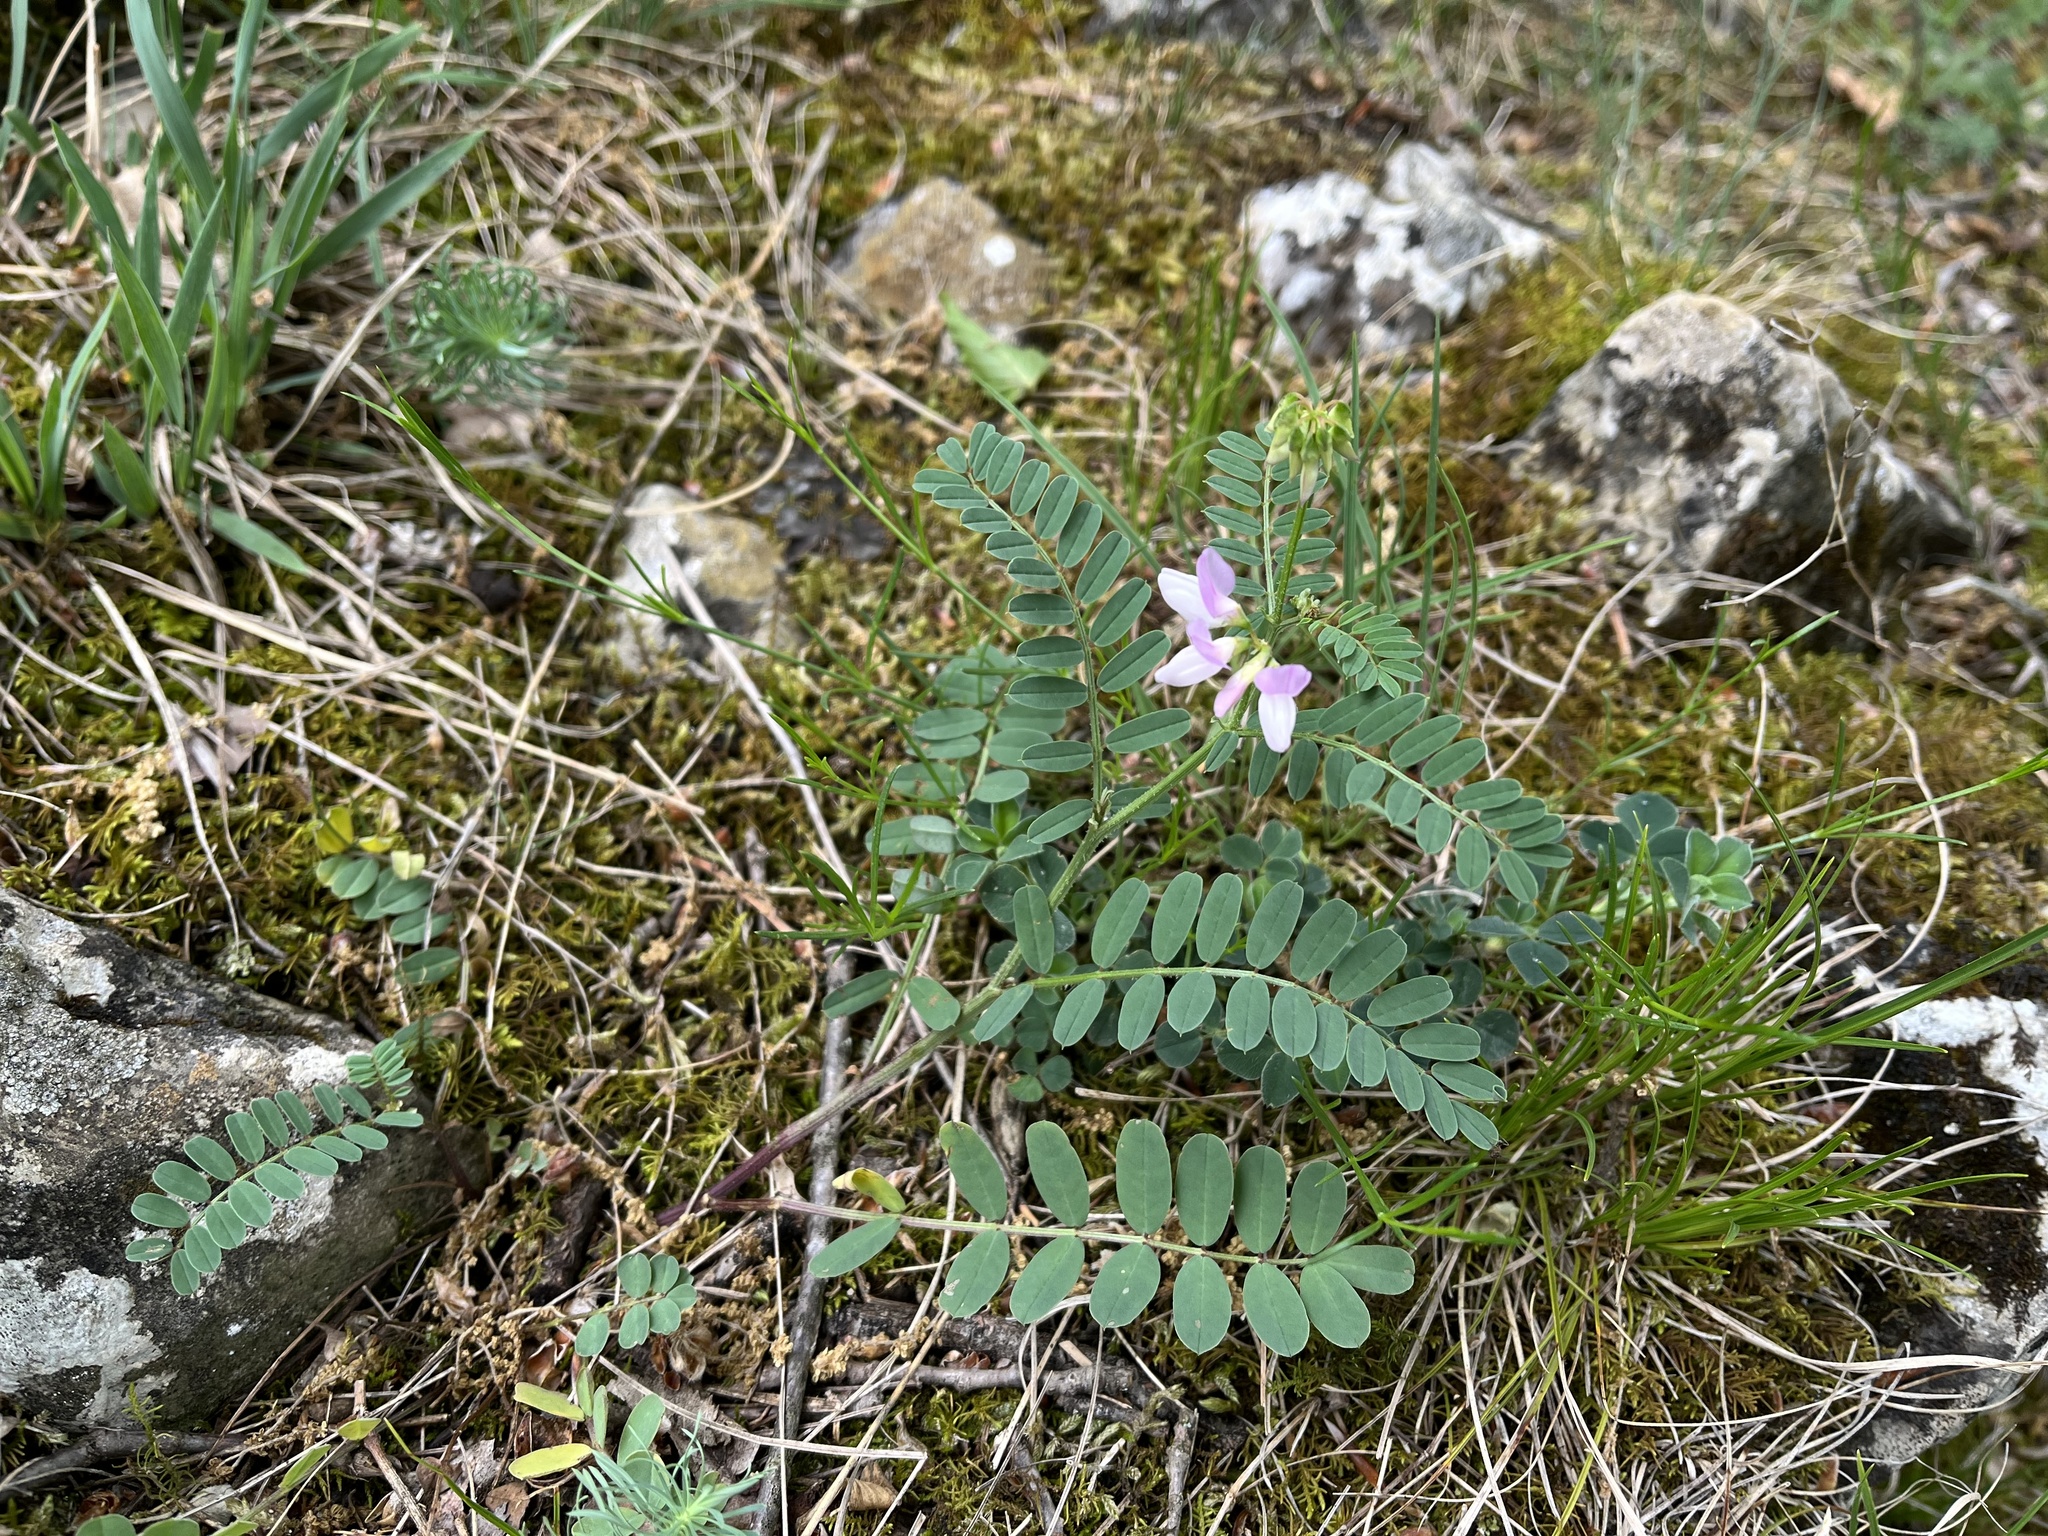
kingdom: Plantae
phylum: Tracheophyta
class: Magnoliopsida
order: Fabales
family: Fabaceae
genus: Coronilla
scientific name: Coronilla varia
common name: Crownvetch
